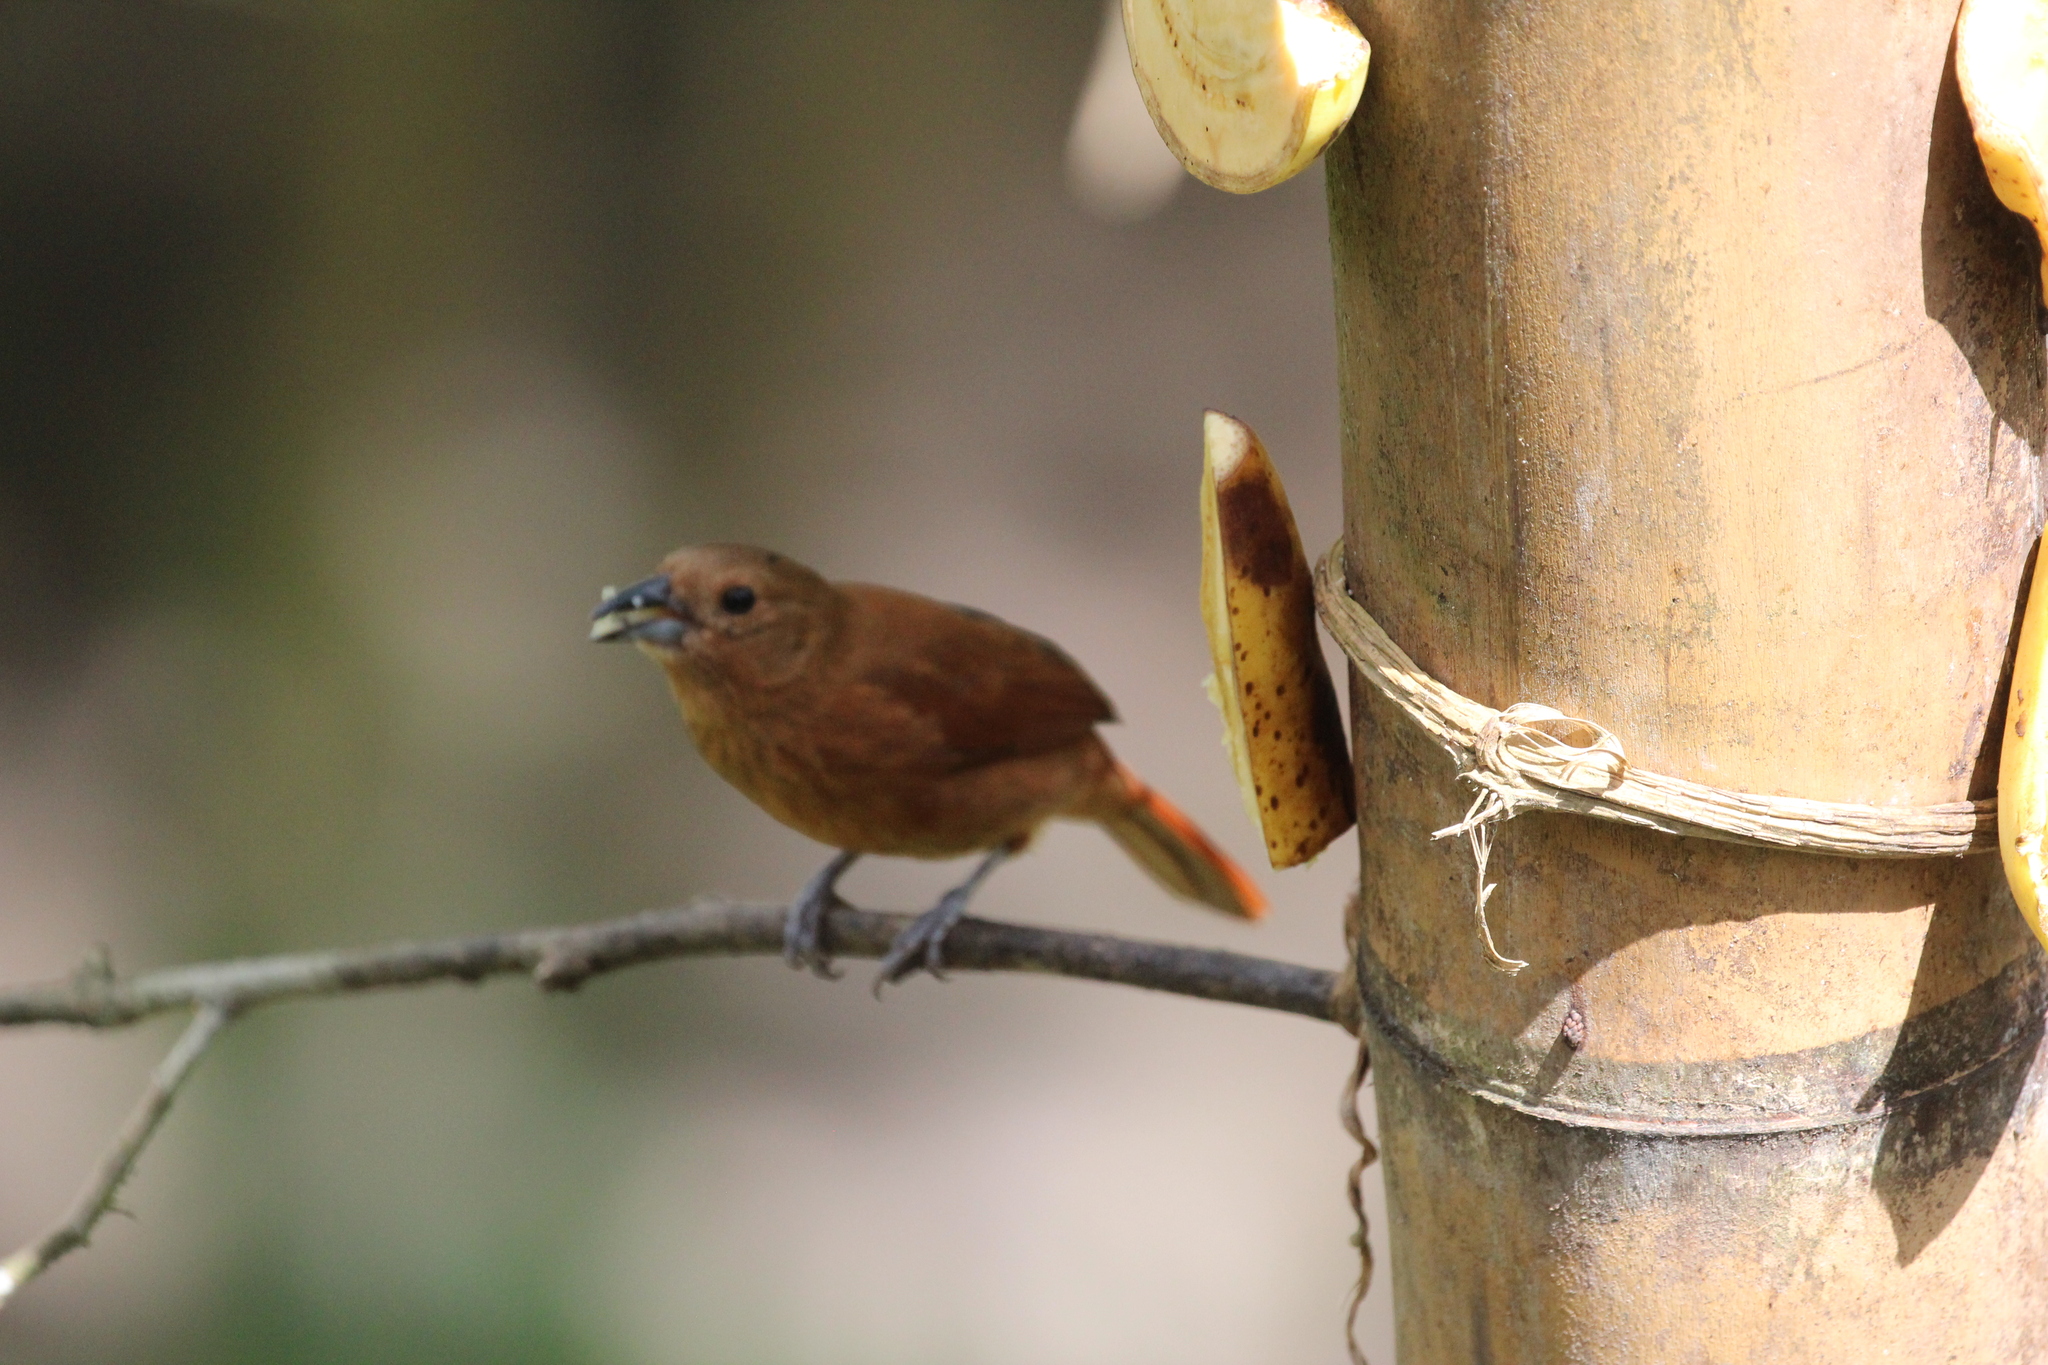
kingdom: Animalia
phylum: Chordata
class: Aves
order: Passeriformes
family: Thraupidae
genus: Tachyphonus
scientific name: Tachyphonus rufus
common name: White-lined tanager
